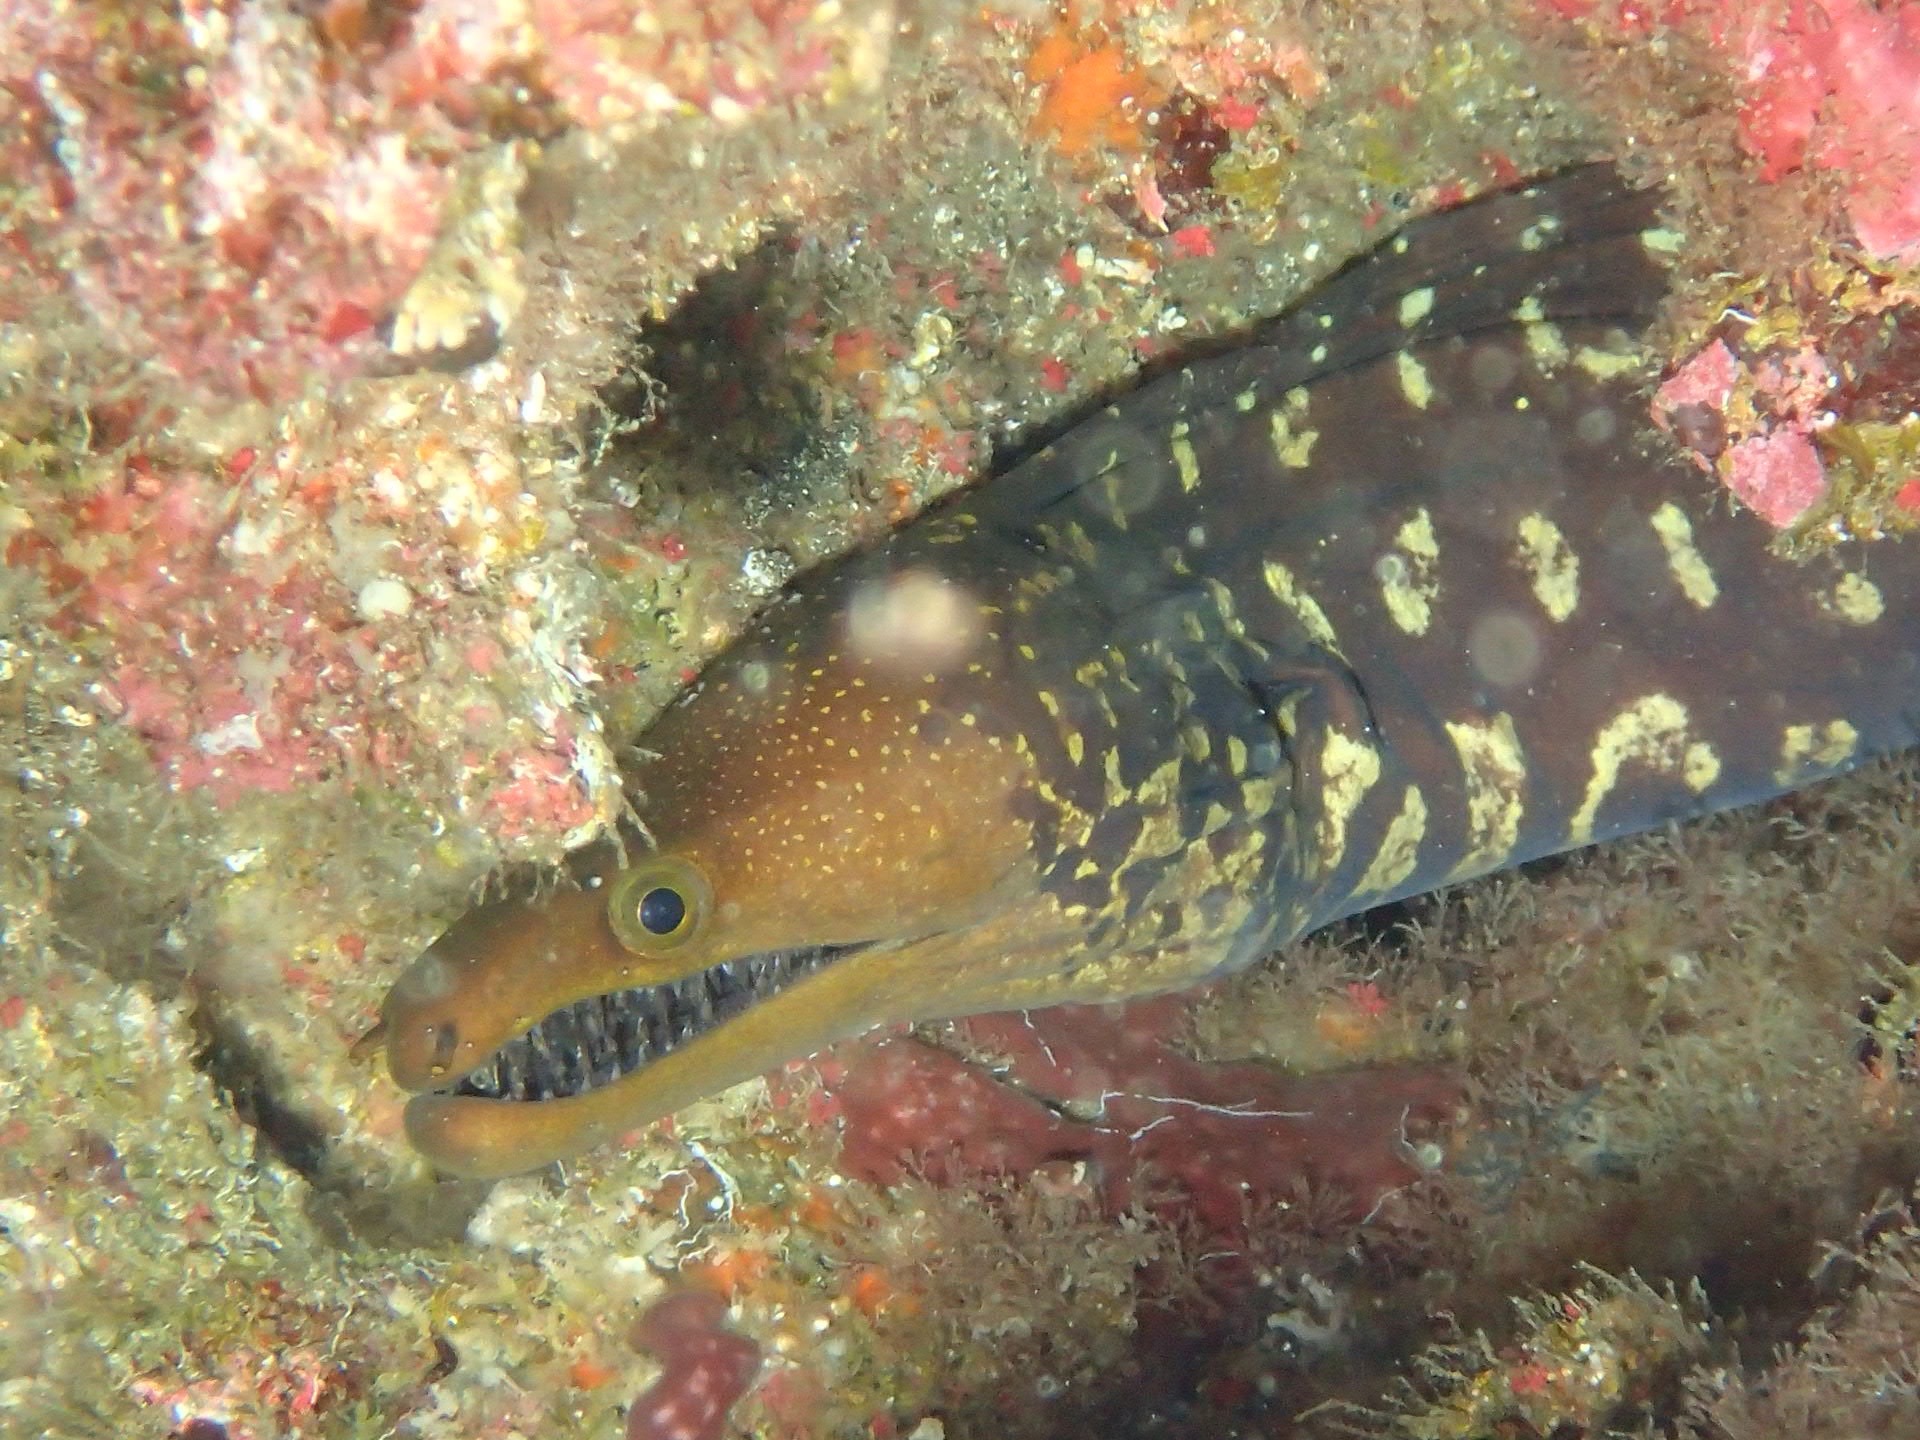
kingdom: Animalia
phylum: Chordata
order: Anguilliformes
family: Muraenidae
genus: Enchelycore
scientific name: Enchelycore anatina
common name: Fangtooth moray
